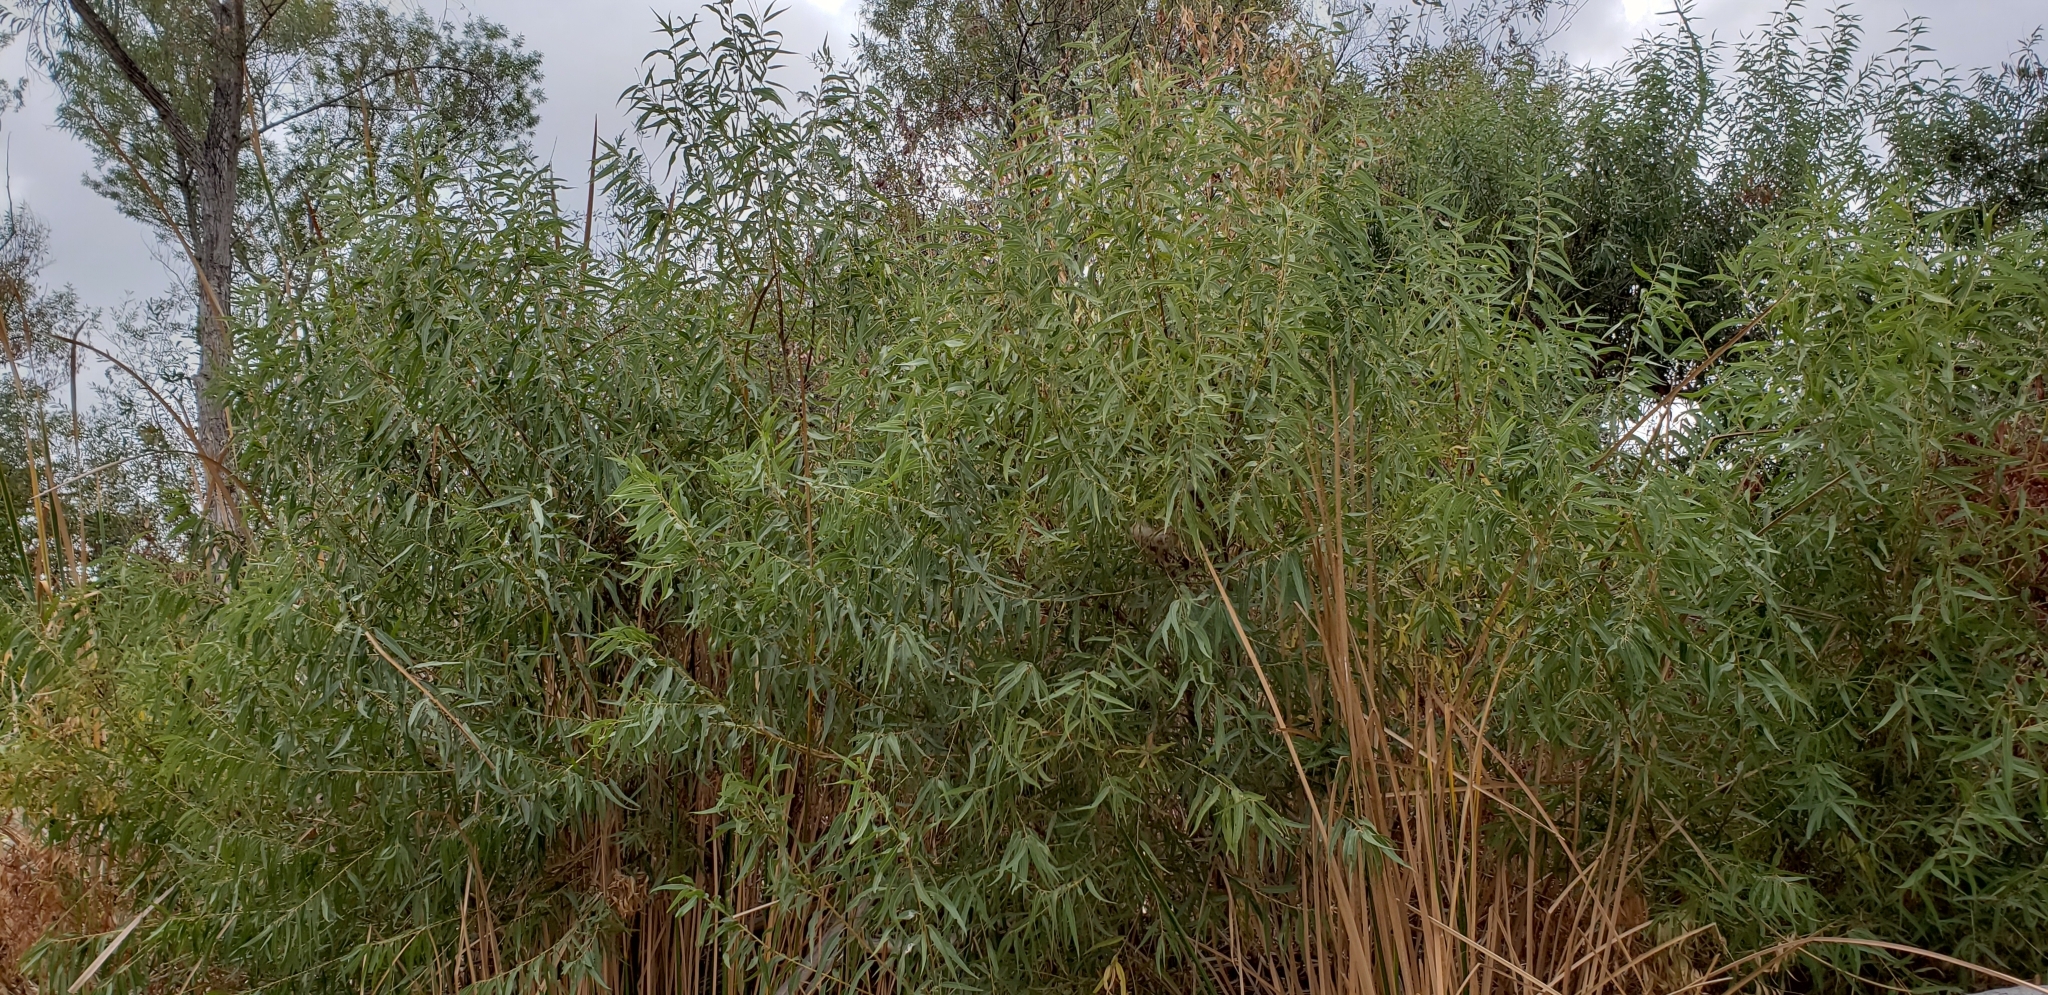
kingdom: Plantae
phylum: Tracheophyta
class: Magnoliopsida
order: Malpighiales
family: Salicaceae
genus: Salix
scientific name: Salix gooddingii
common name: Goodding's willow
